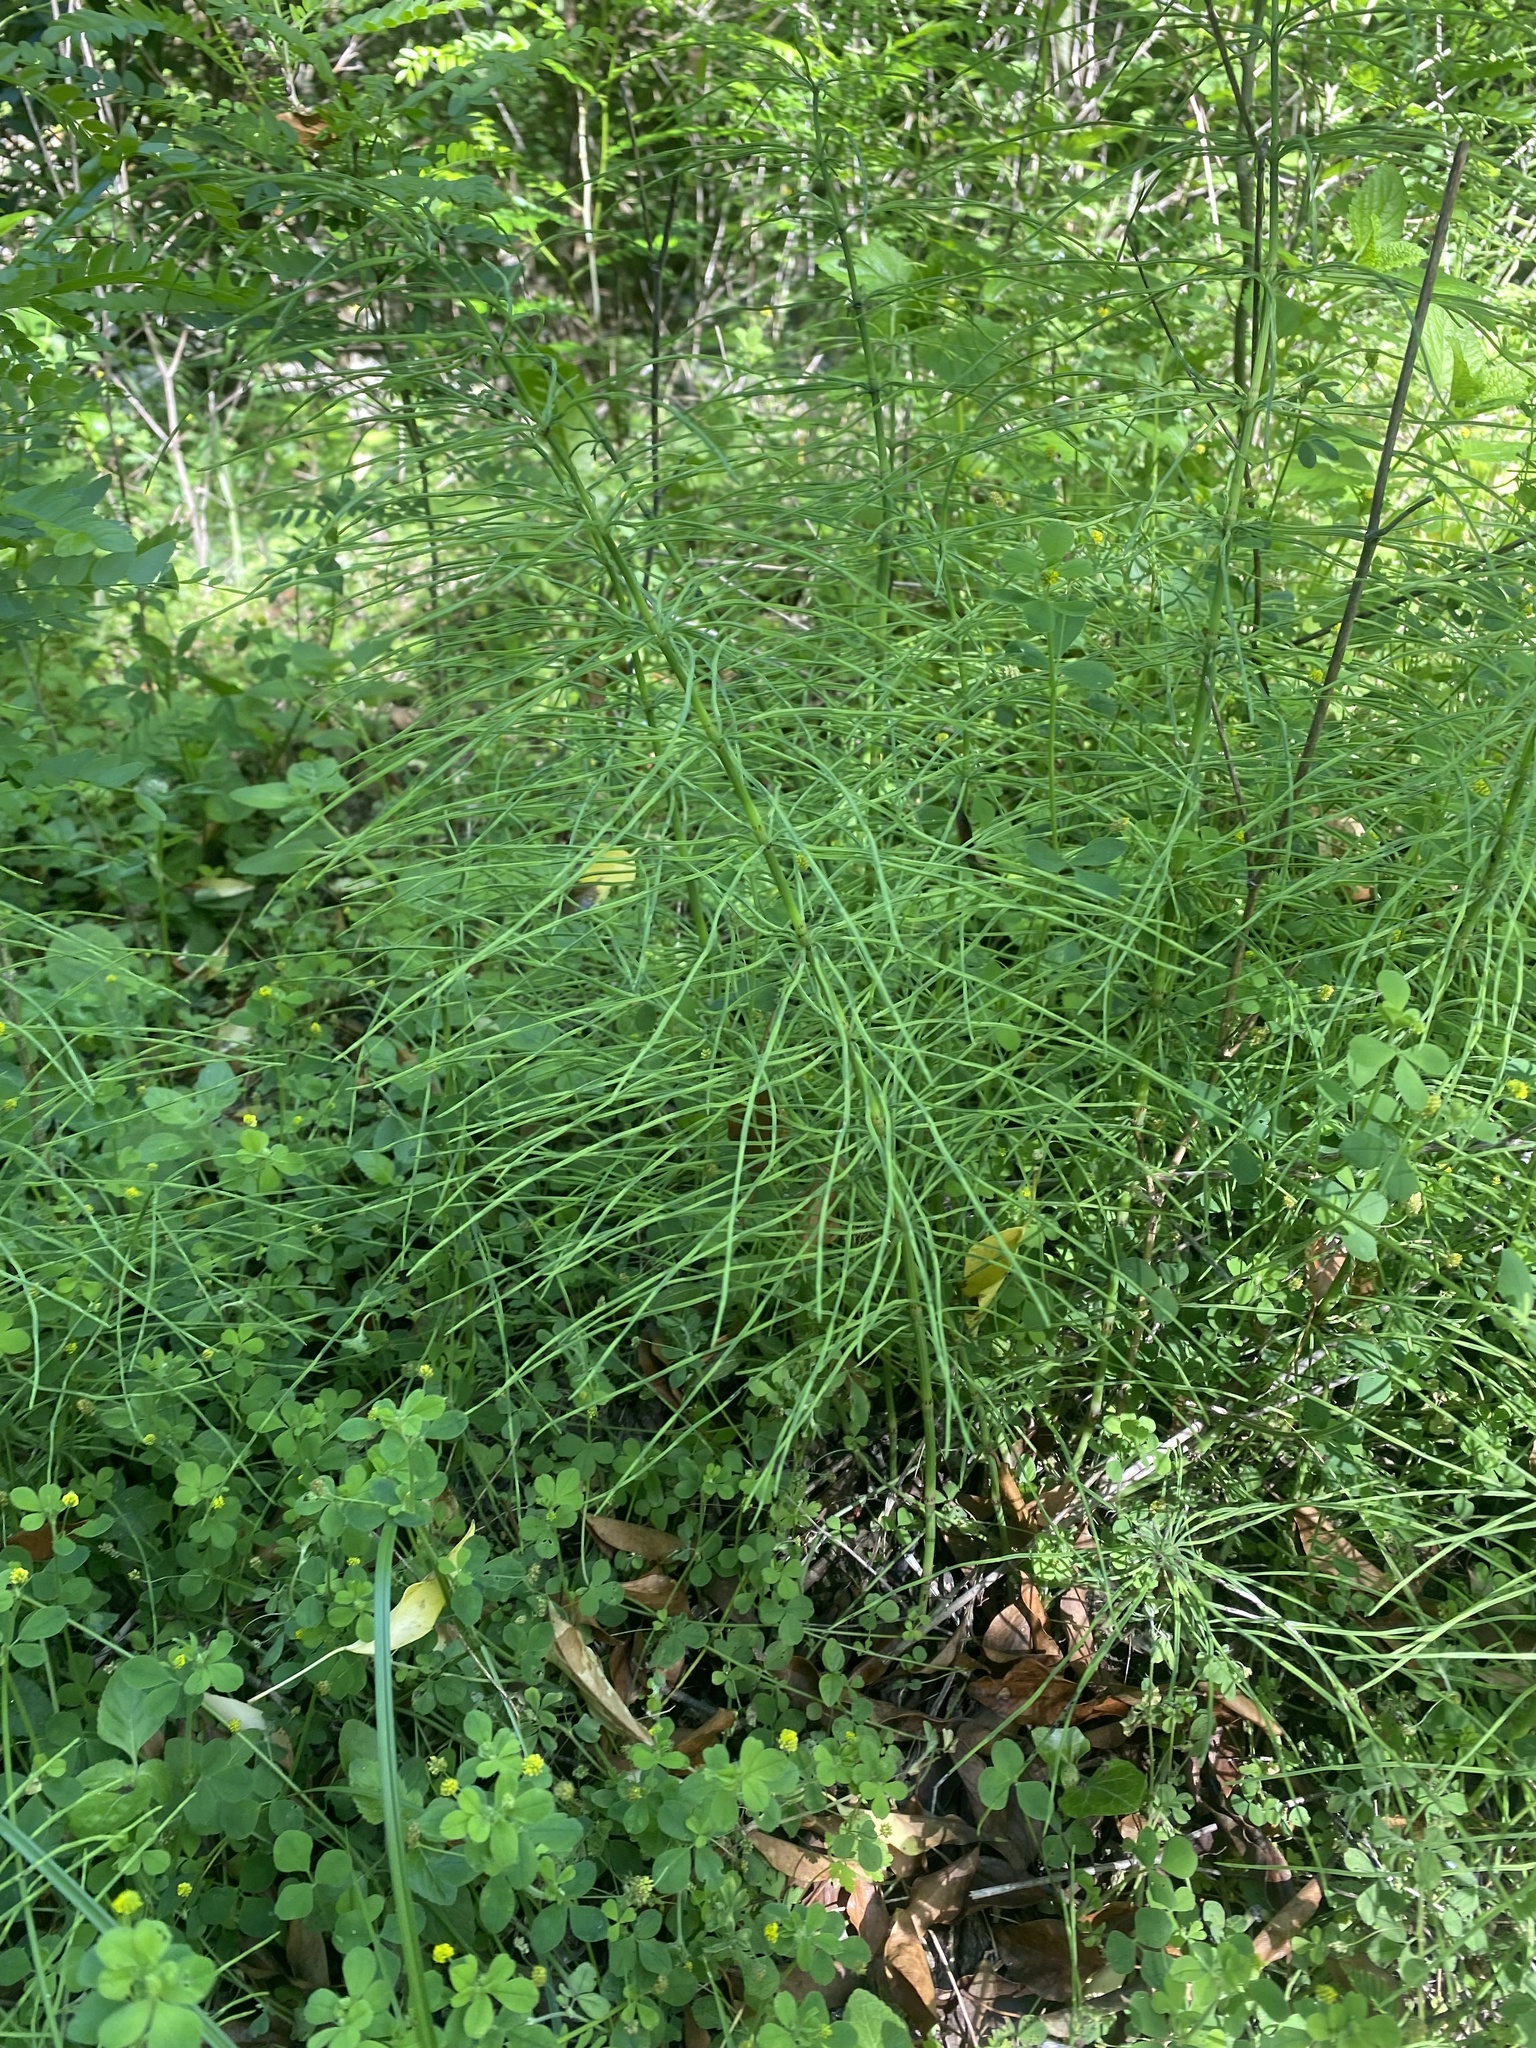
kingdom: Plantae
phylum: Tracheophyta
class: Polypodiopsida
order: Equisetales
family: Equisetaceae
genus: Equisetum
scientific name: Equisetum arvense
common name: Field horsetail
